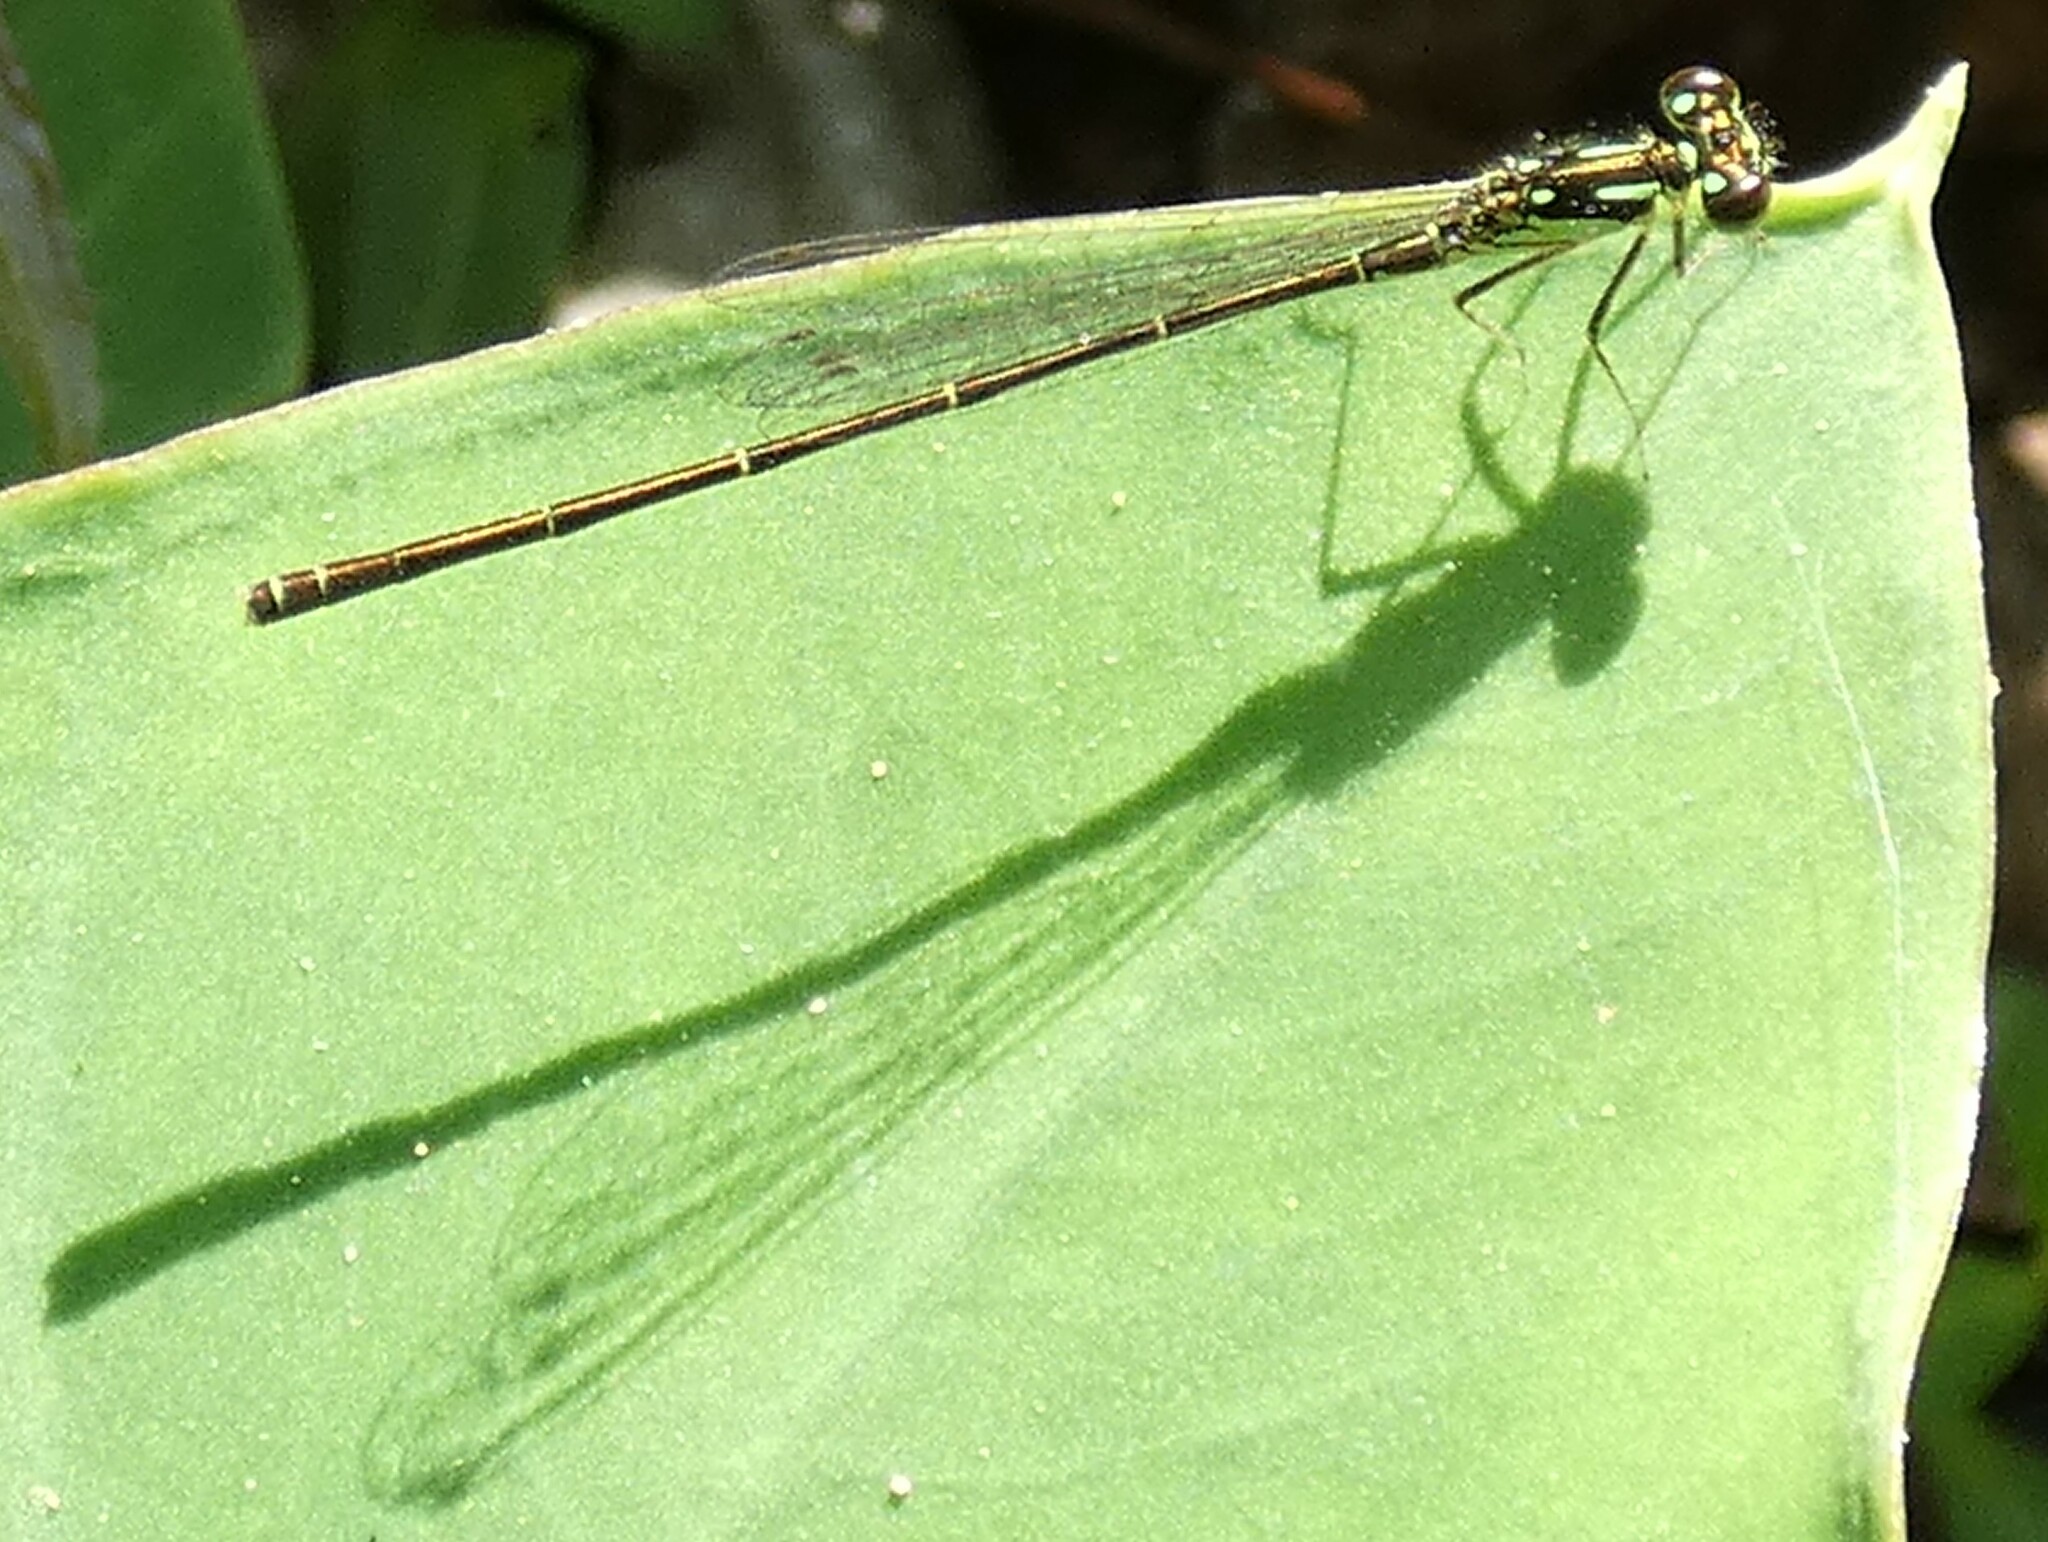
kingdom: Animalia
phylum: Arthropoda
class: Insecta
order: Odonata
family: Coenagrionidae
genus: Ischnura
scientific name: Ischnura posita
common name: Fragile forktail
